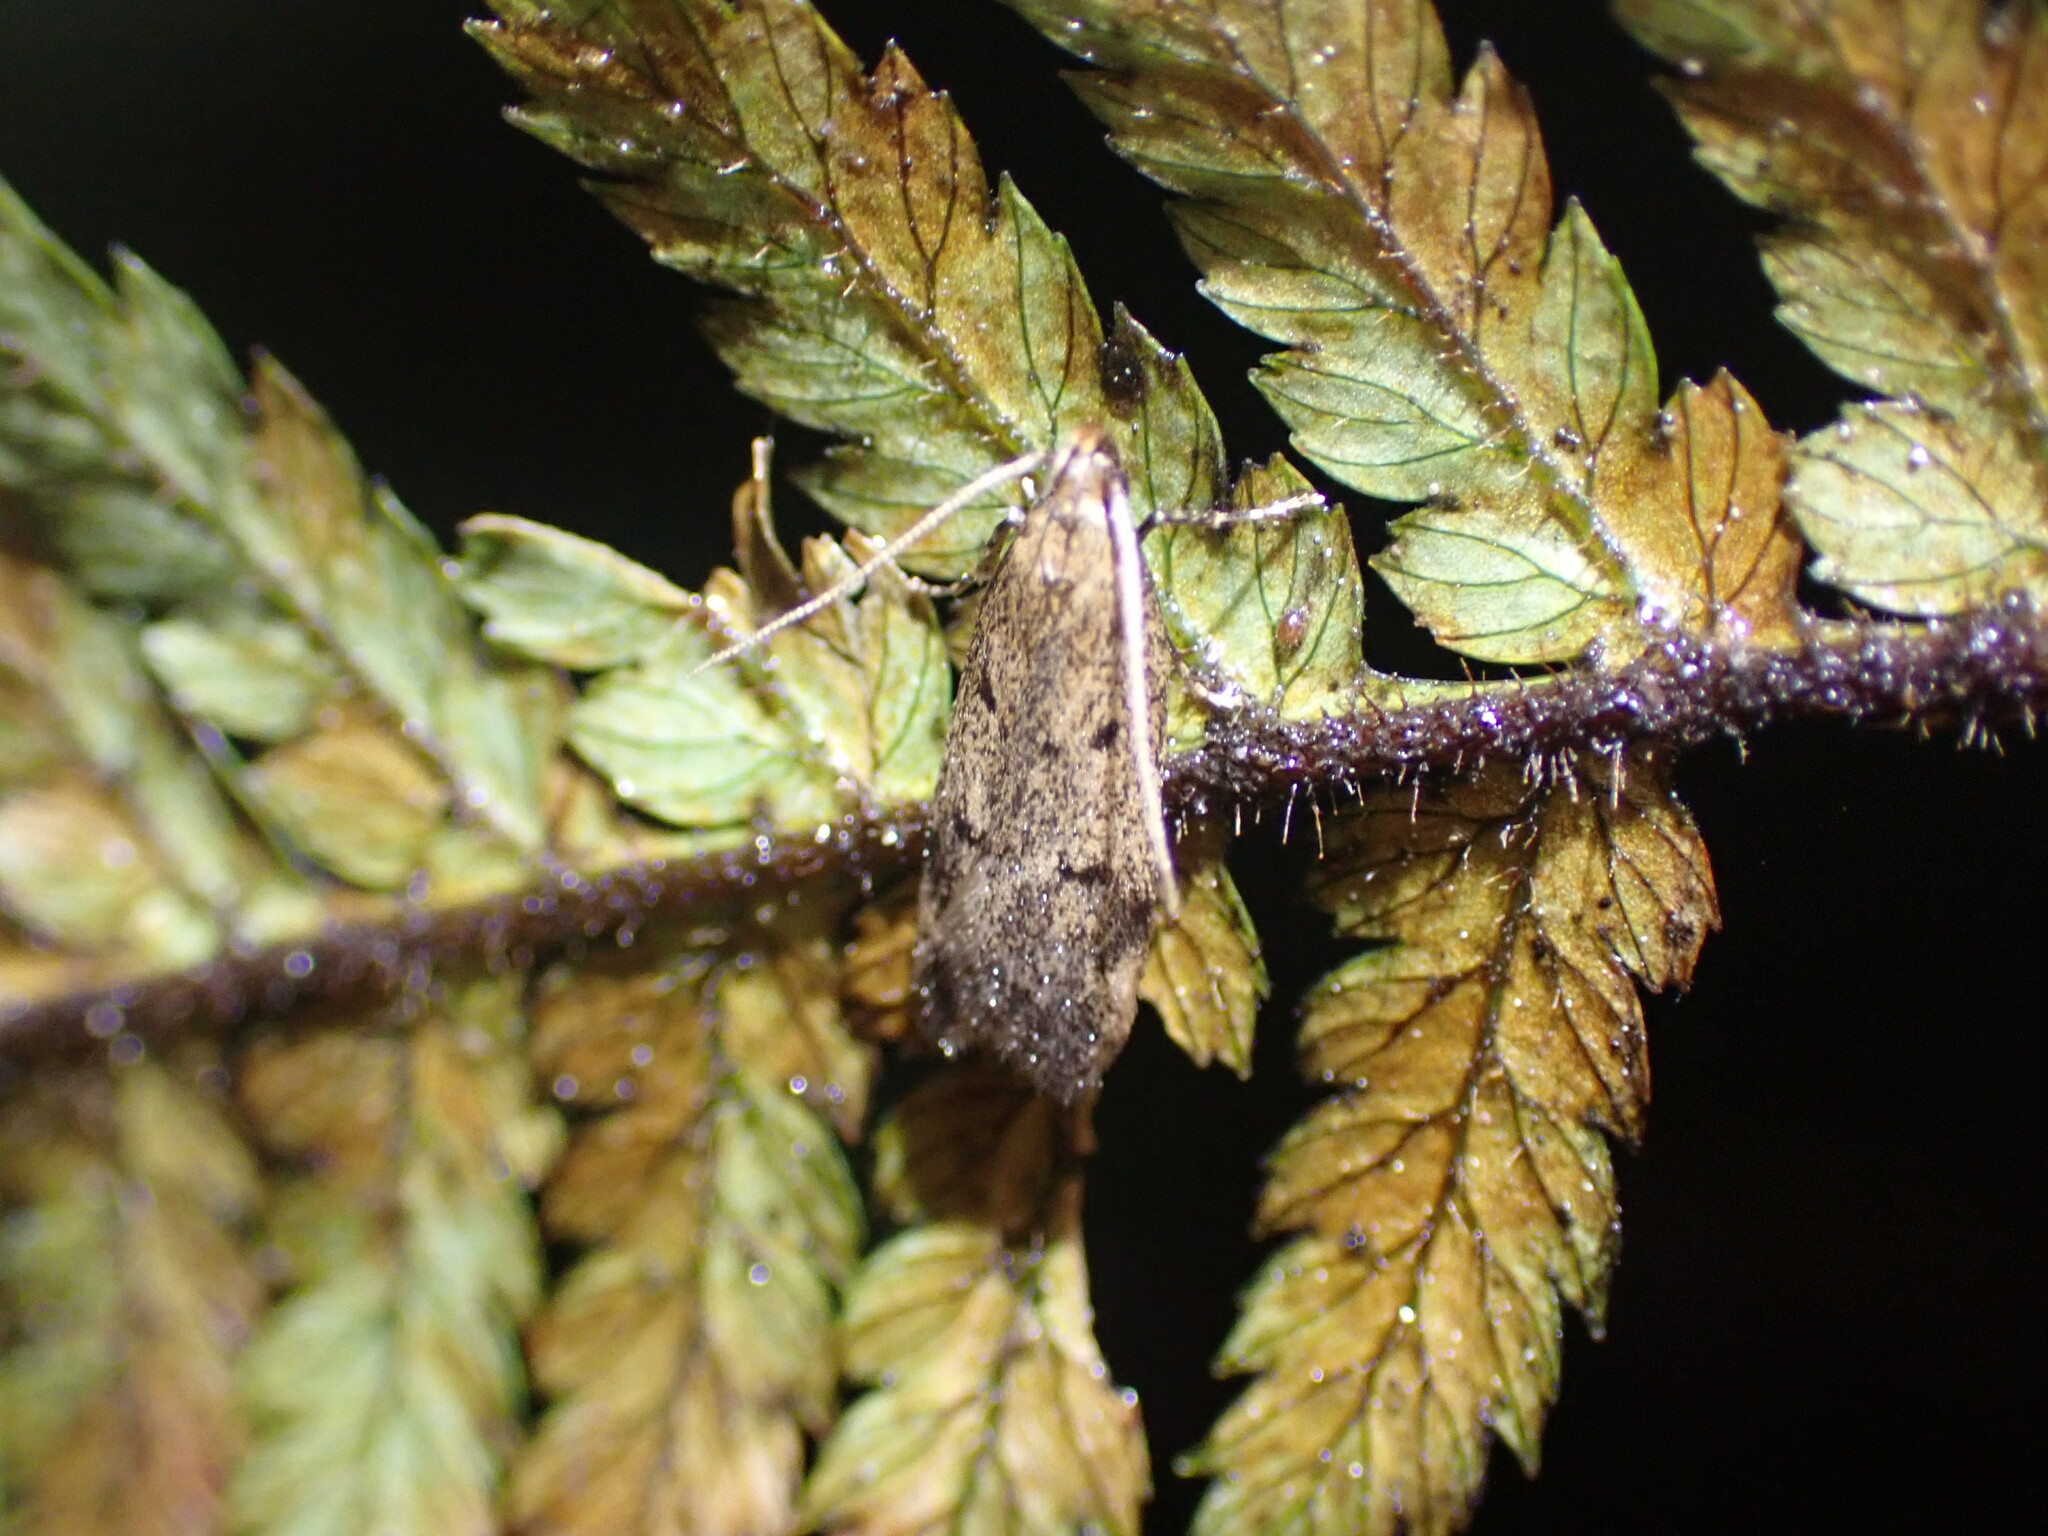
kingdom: Animalia
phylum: Arthropoda
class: Insecta
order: Lepidoptera
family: Oecophoridae
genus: Gymnobathra
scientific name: Gymnobathra tholodella
